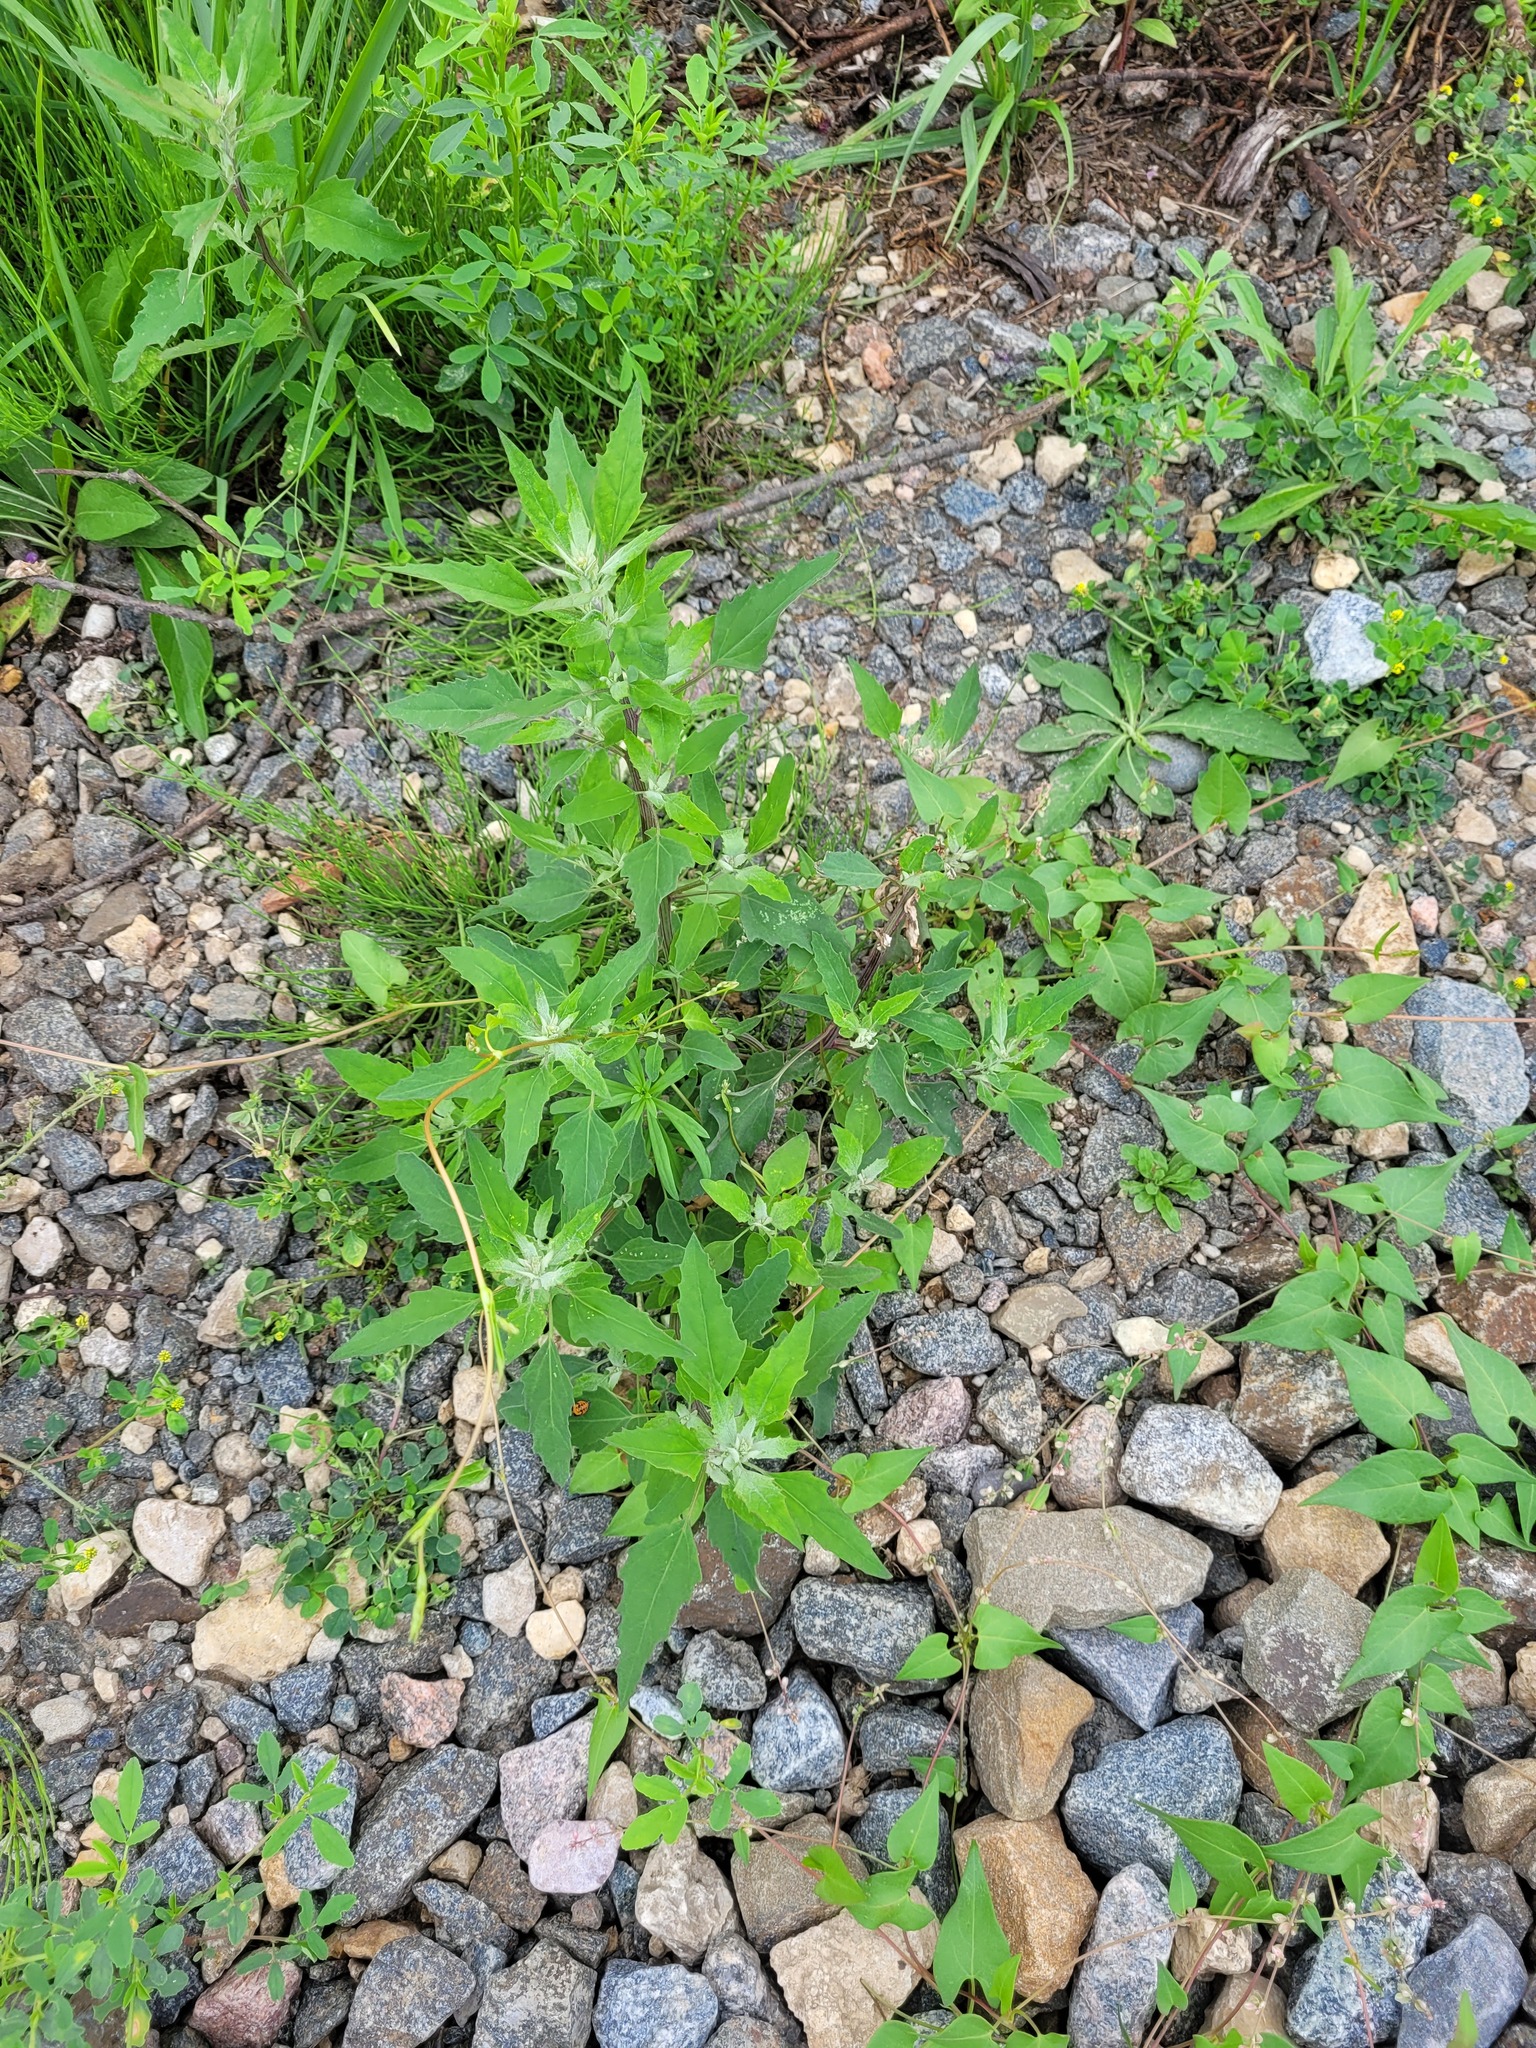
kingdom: Plantae
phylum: Tracheophyta
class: Magnoliopsida
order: Caryophyllales
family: Amaranthaceae
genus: Chenopodium
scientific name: Chenopodium album
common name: Fat-hen
